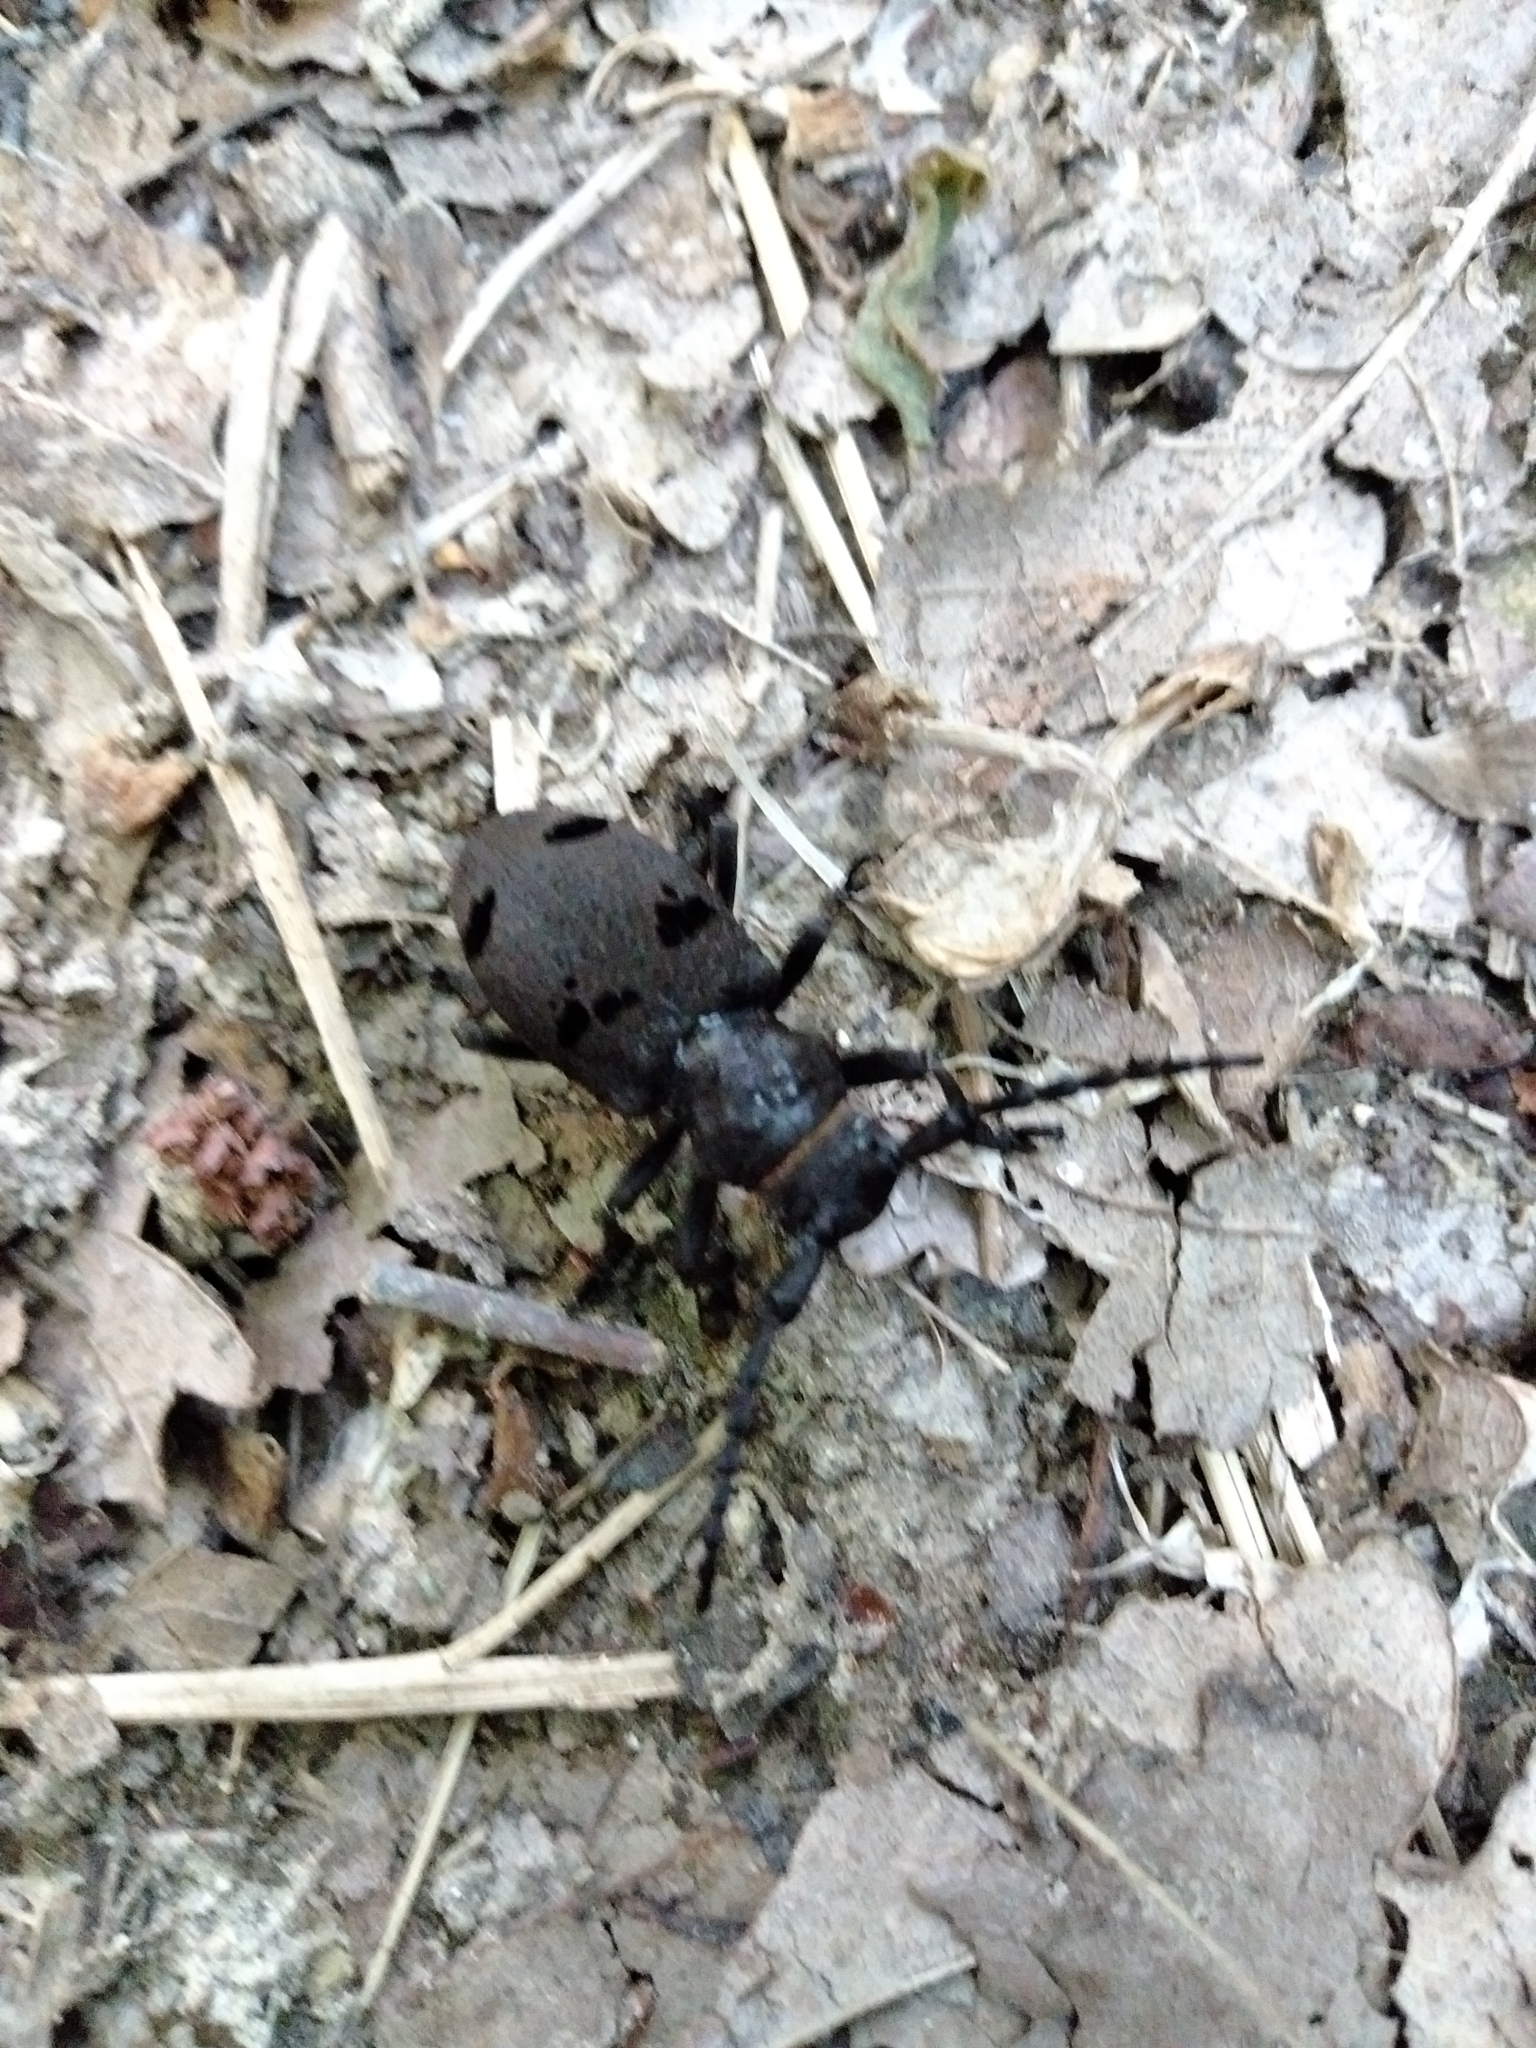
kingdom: Animalia
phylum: Arthropoda
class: Insecta
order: Coleoptera
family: Cerambycidae
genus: Herophila
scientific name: Herophila tristis
